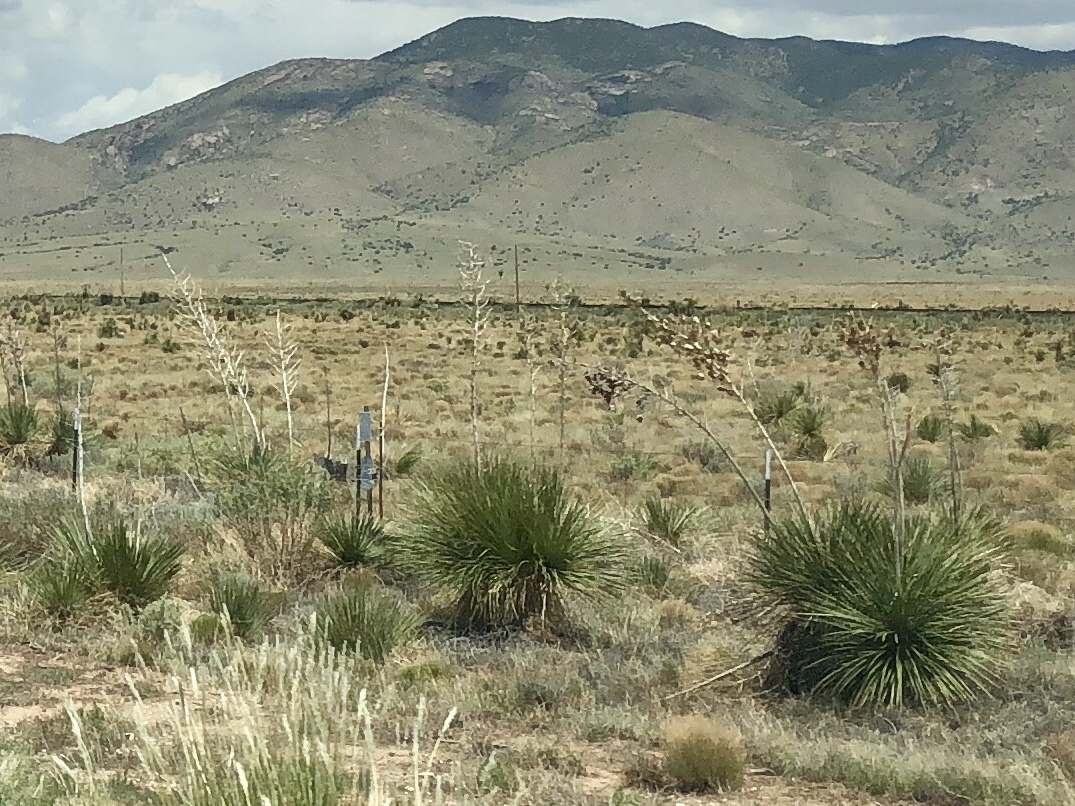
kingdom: Plantae
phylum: Tracheophyta
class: Liliopsida
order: Asparagales
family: Asparagaceae
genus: Yucca
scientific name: Yucca elata
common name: Palmella
